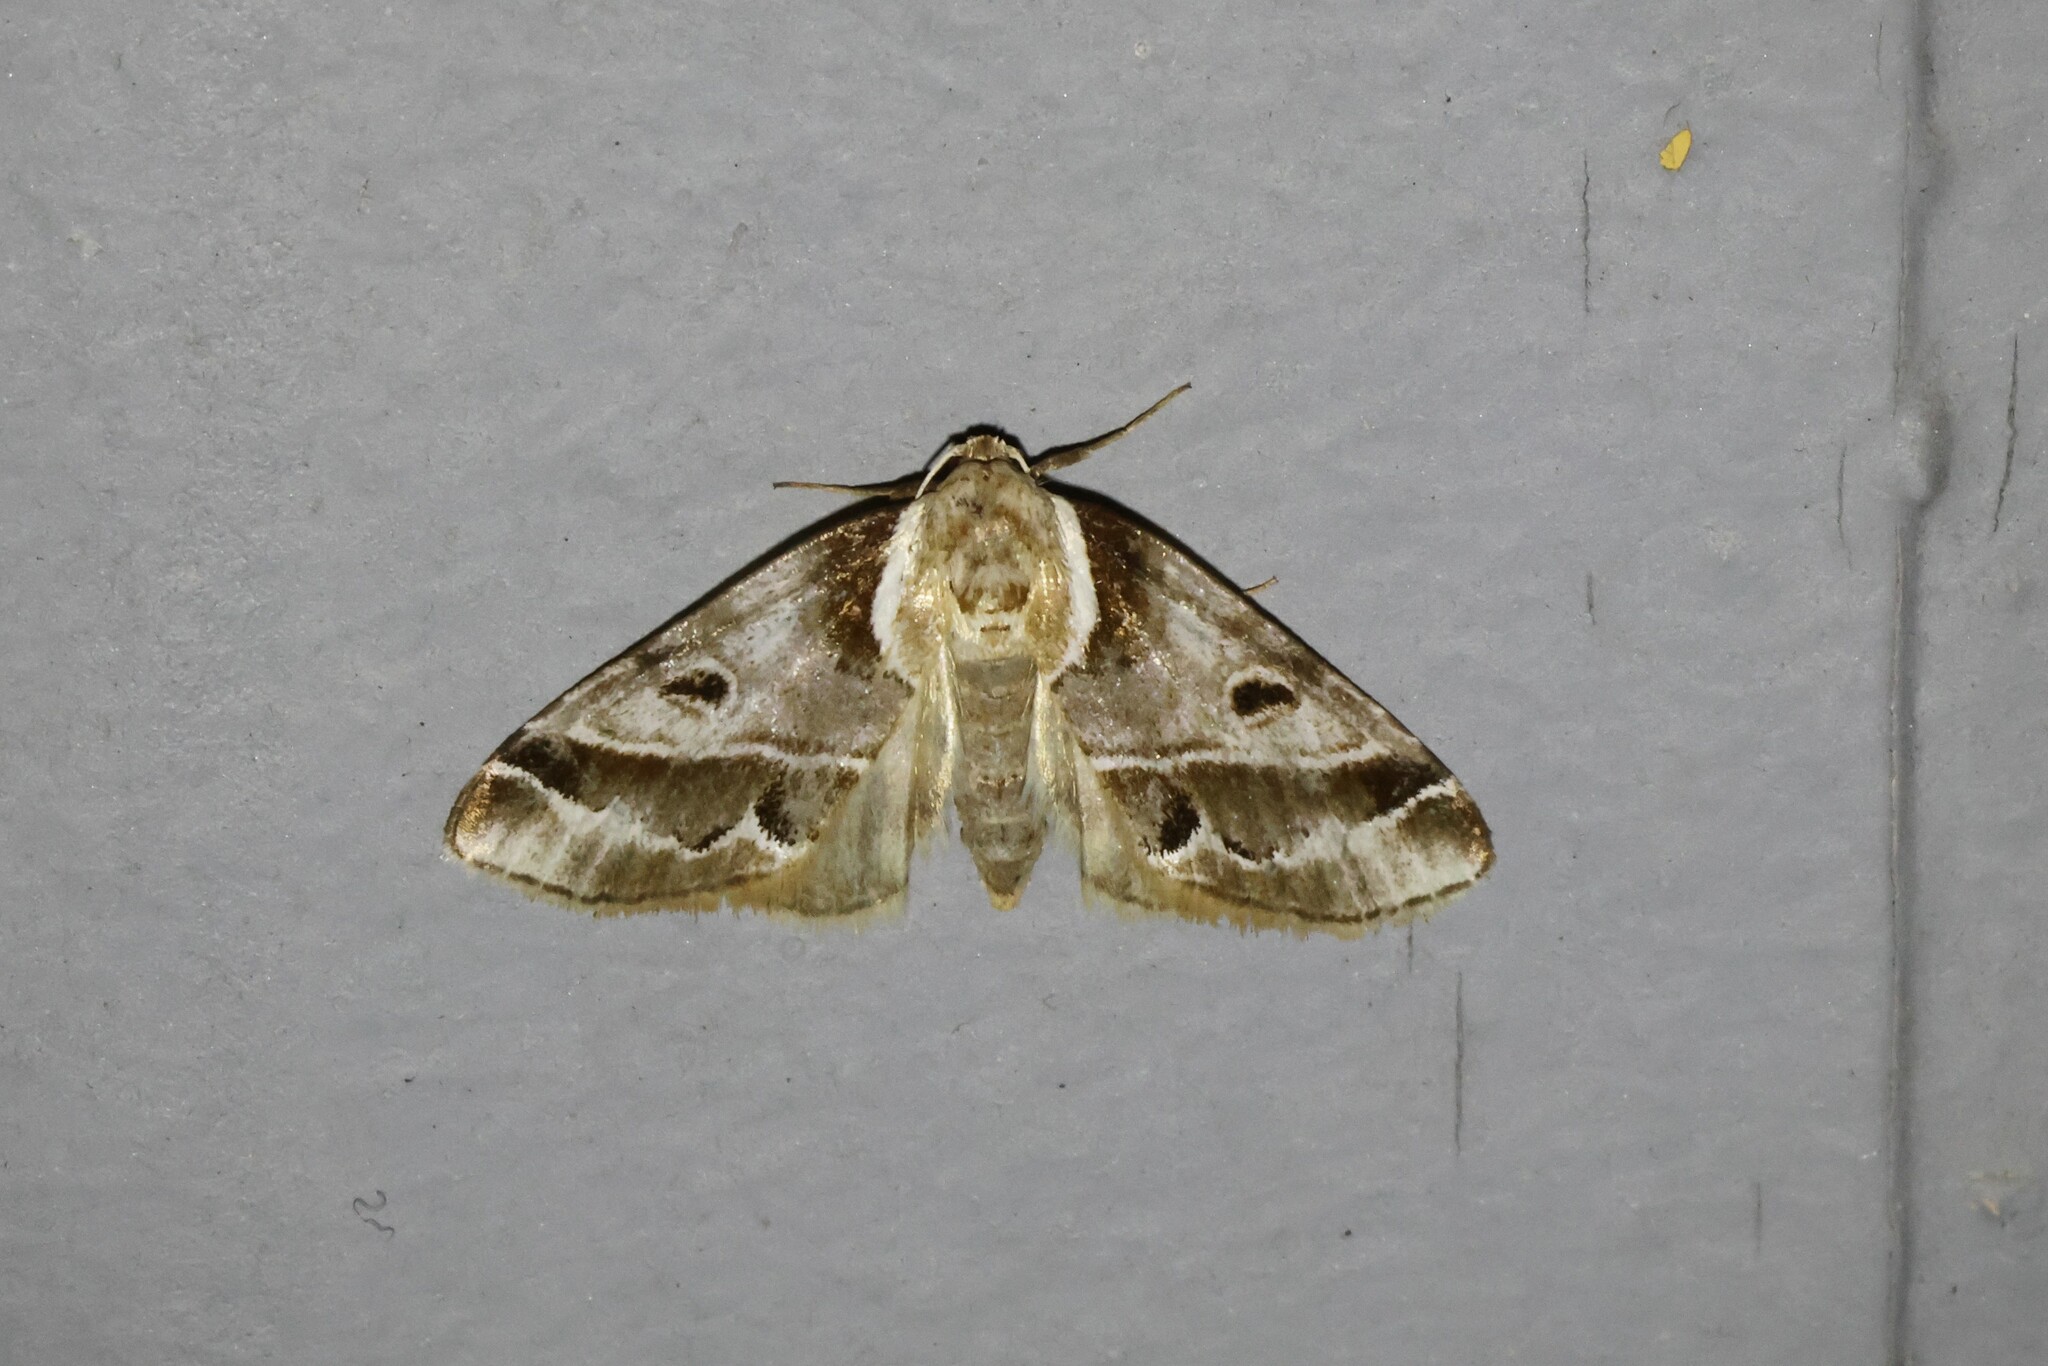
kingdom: Animalia
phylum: Arthropoda
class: Insecta
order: Lepidoptera
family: Nolidae
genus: Baileya
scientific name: Baileya doubledayi
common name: Doubleday's baileya moth
